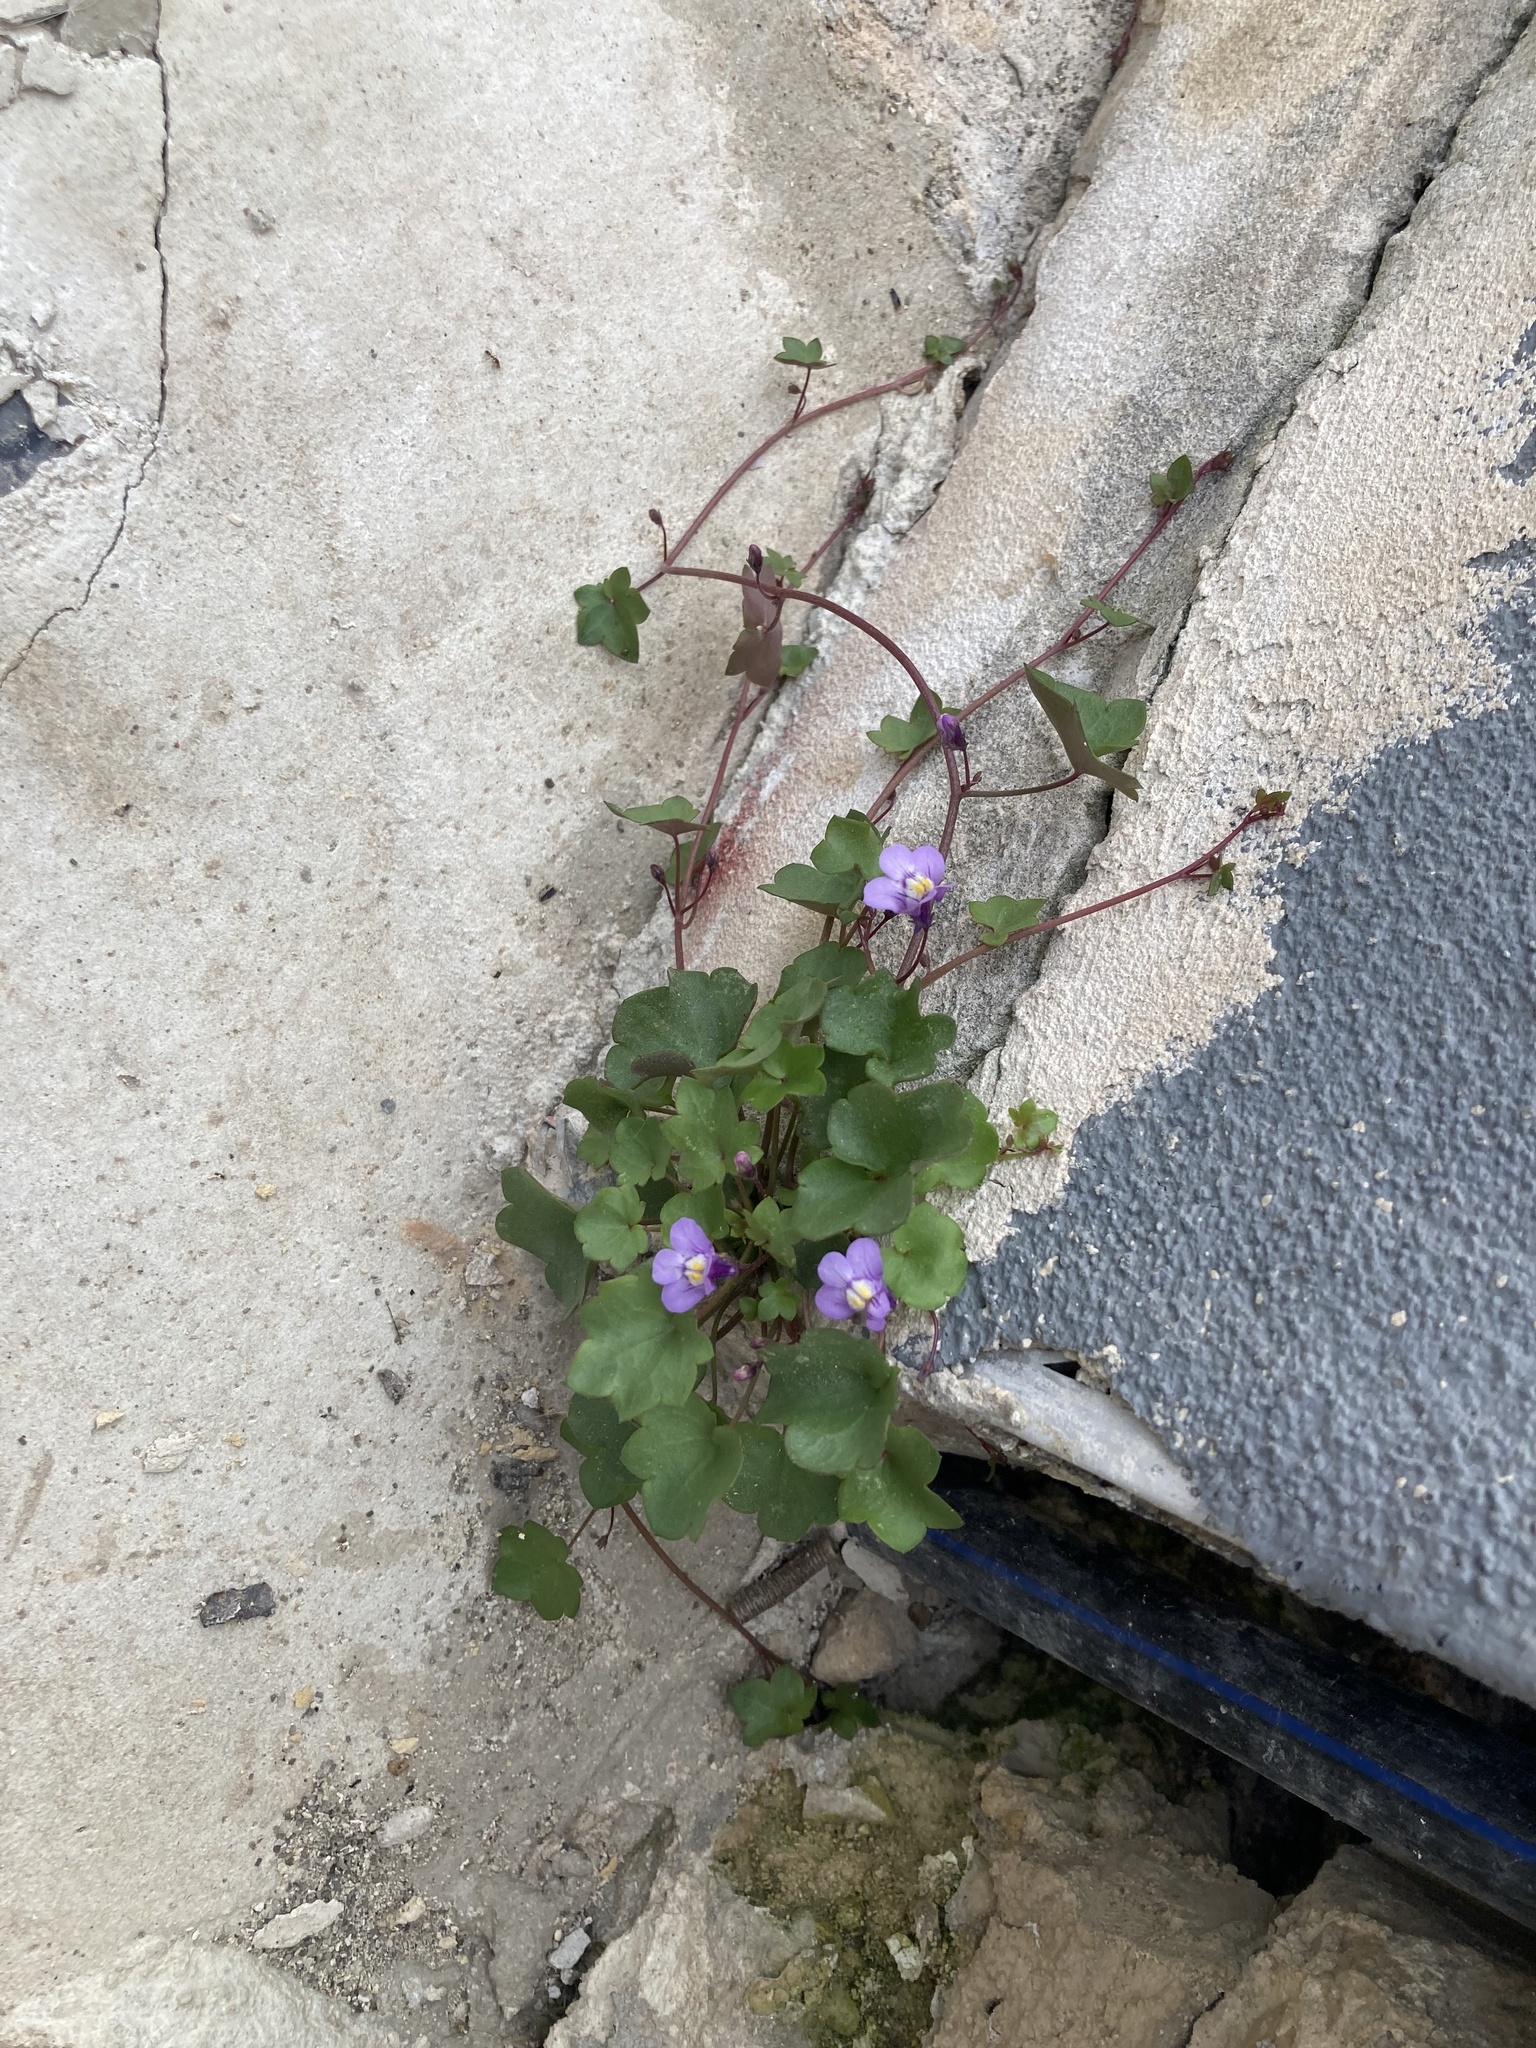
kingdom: Plantae
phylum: Tracheophyta
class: Magnoliopsida
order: Lamiales
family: Plantaginaceae
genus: Cymbalaria
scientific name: Cymbalaria muralis
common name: Ivy-leaved toadflax
